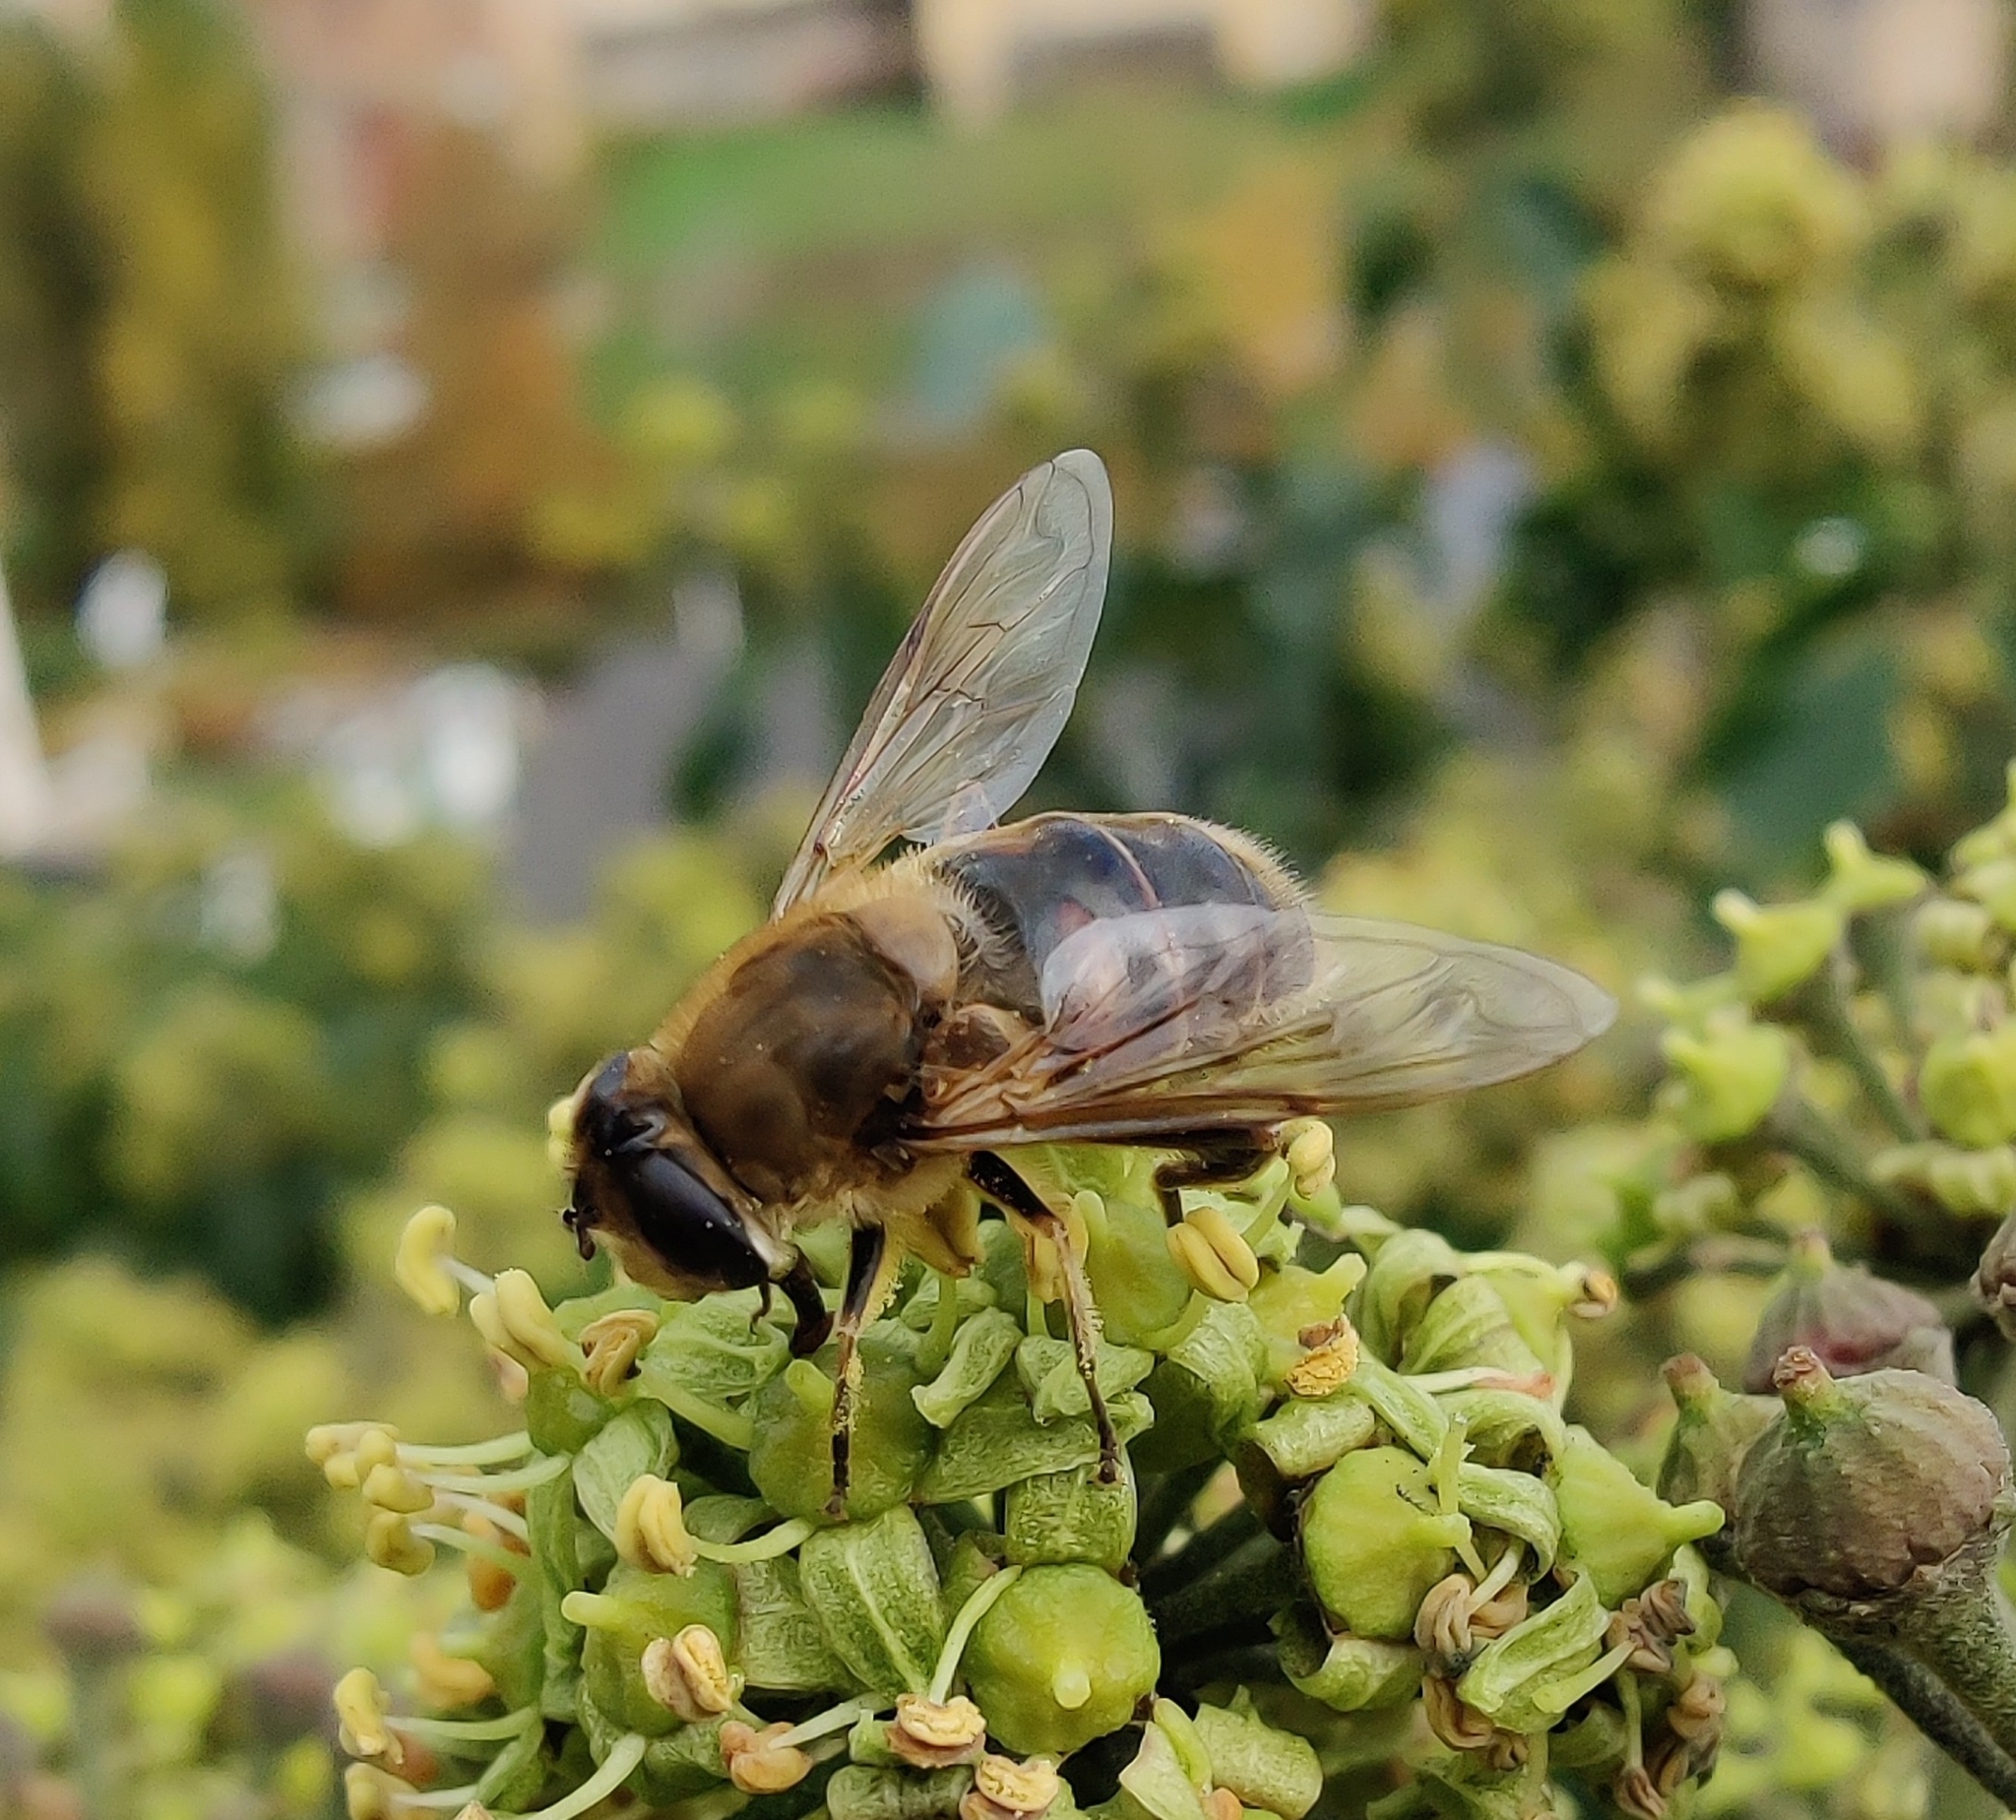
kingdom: Animalia
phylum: Arthropoda
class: Insecta
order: Diptera
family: Syrphidae
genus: Eristalis
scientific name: Eristalis tenax
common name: Drone fly
